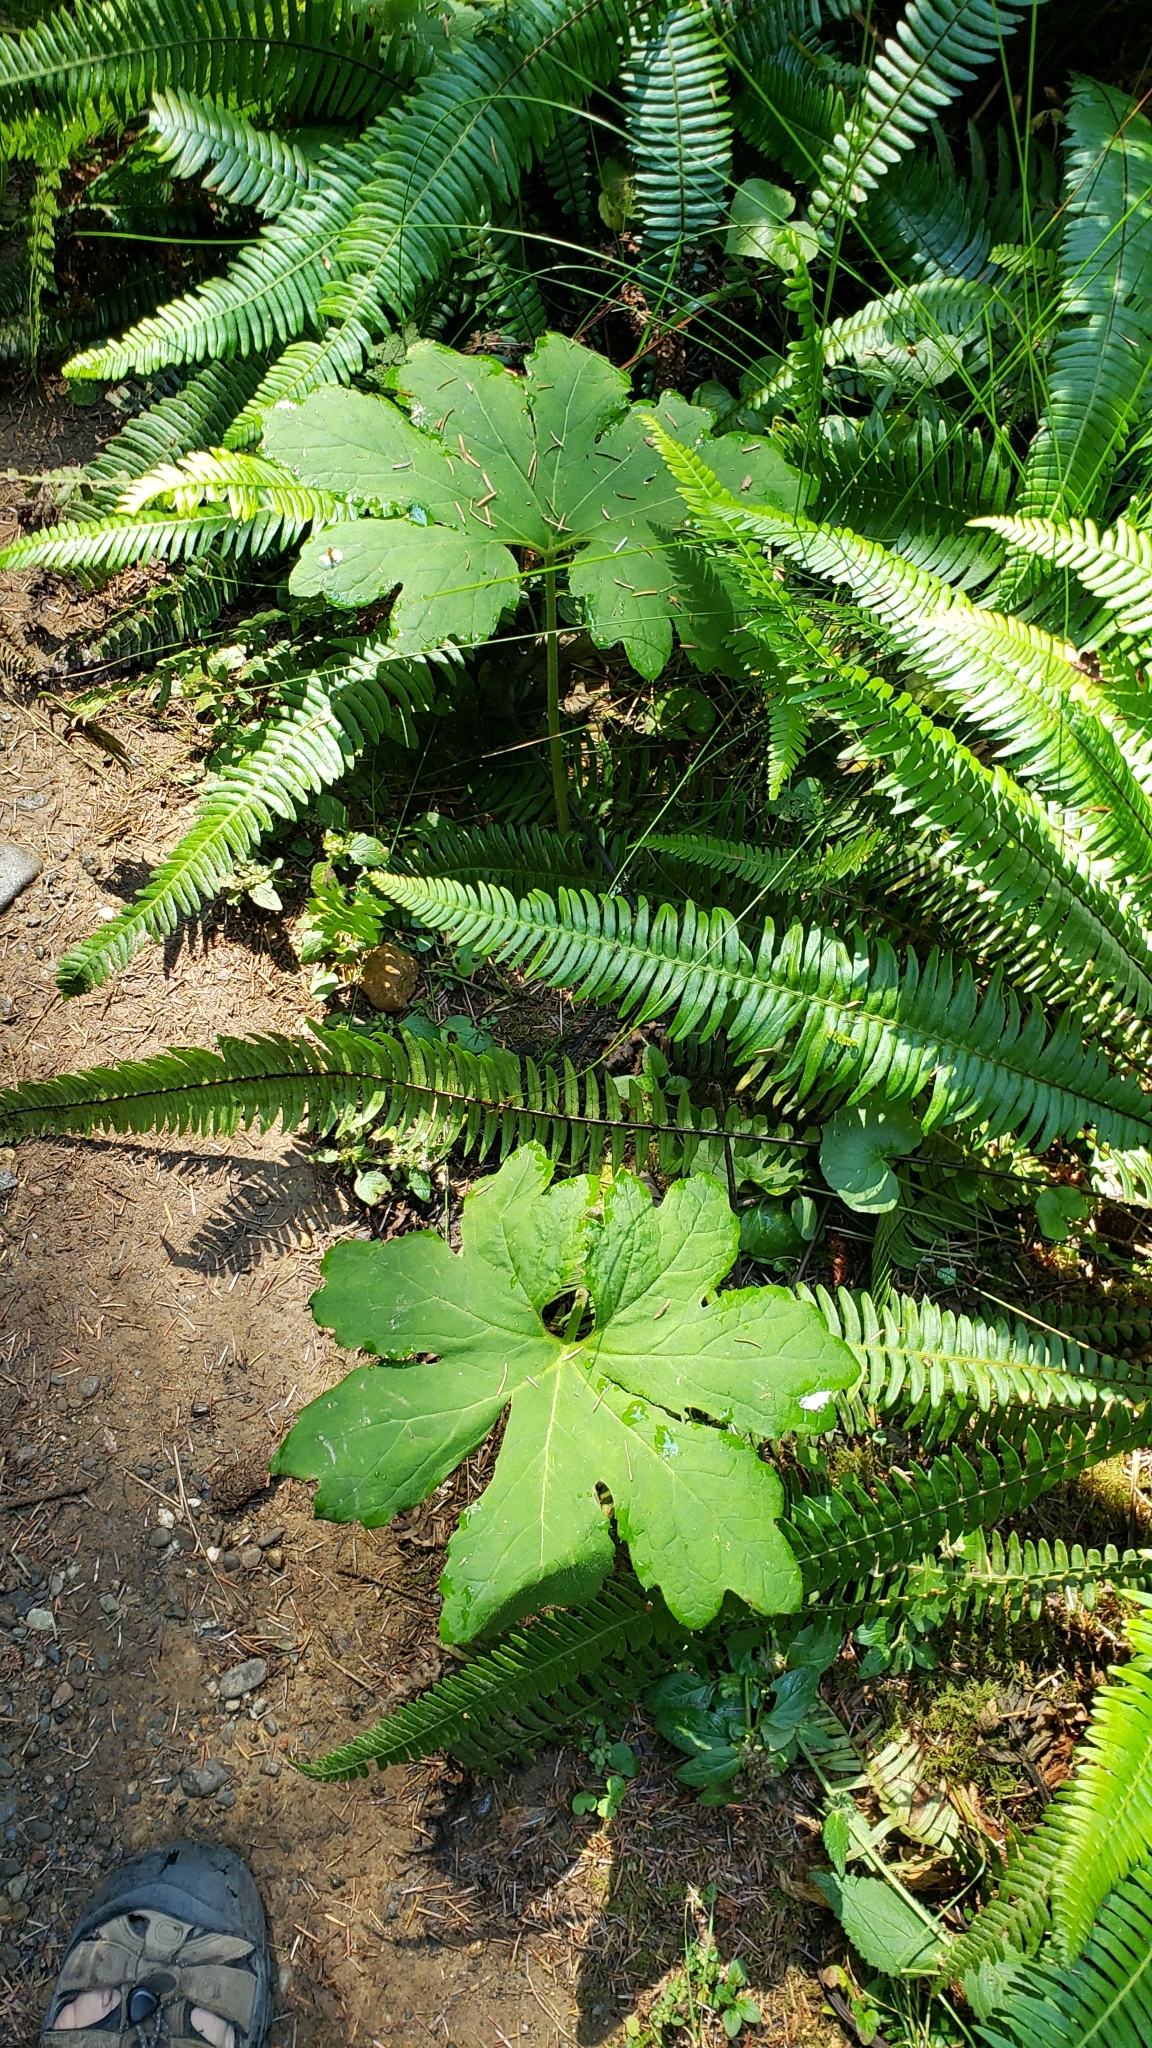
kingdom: Plantae
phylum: Tracheophyta
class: Magnoliopsida
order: Asterales
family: Asteraceae
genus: Petasites
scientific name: Petasites frigidus
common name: Arctic butterbur
